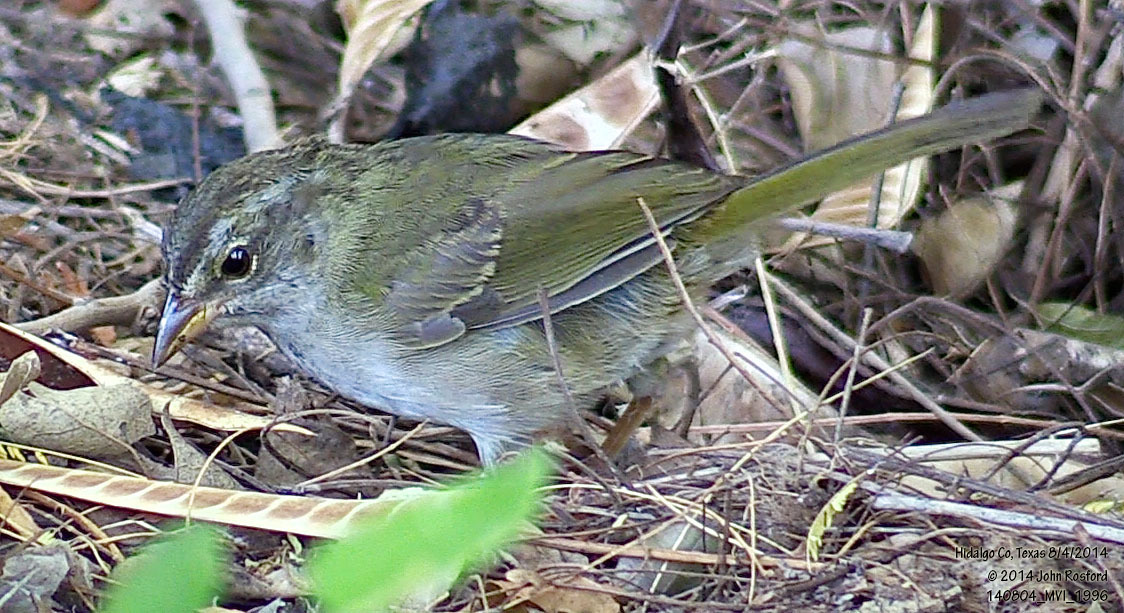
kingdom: Animalia
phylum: Chordata
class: Aves
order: Passeriformes
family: Passerellidae
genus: Arremonops
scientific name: Arremonops rufivirgatus
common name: Olive sparrow
